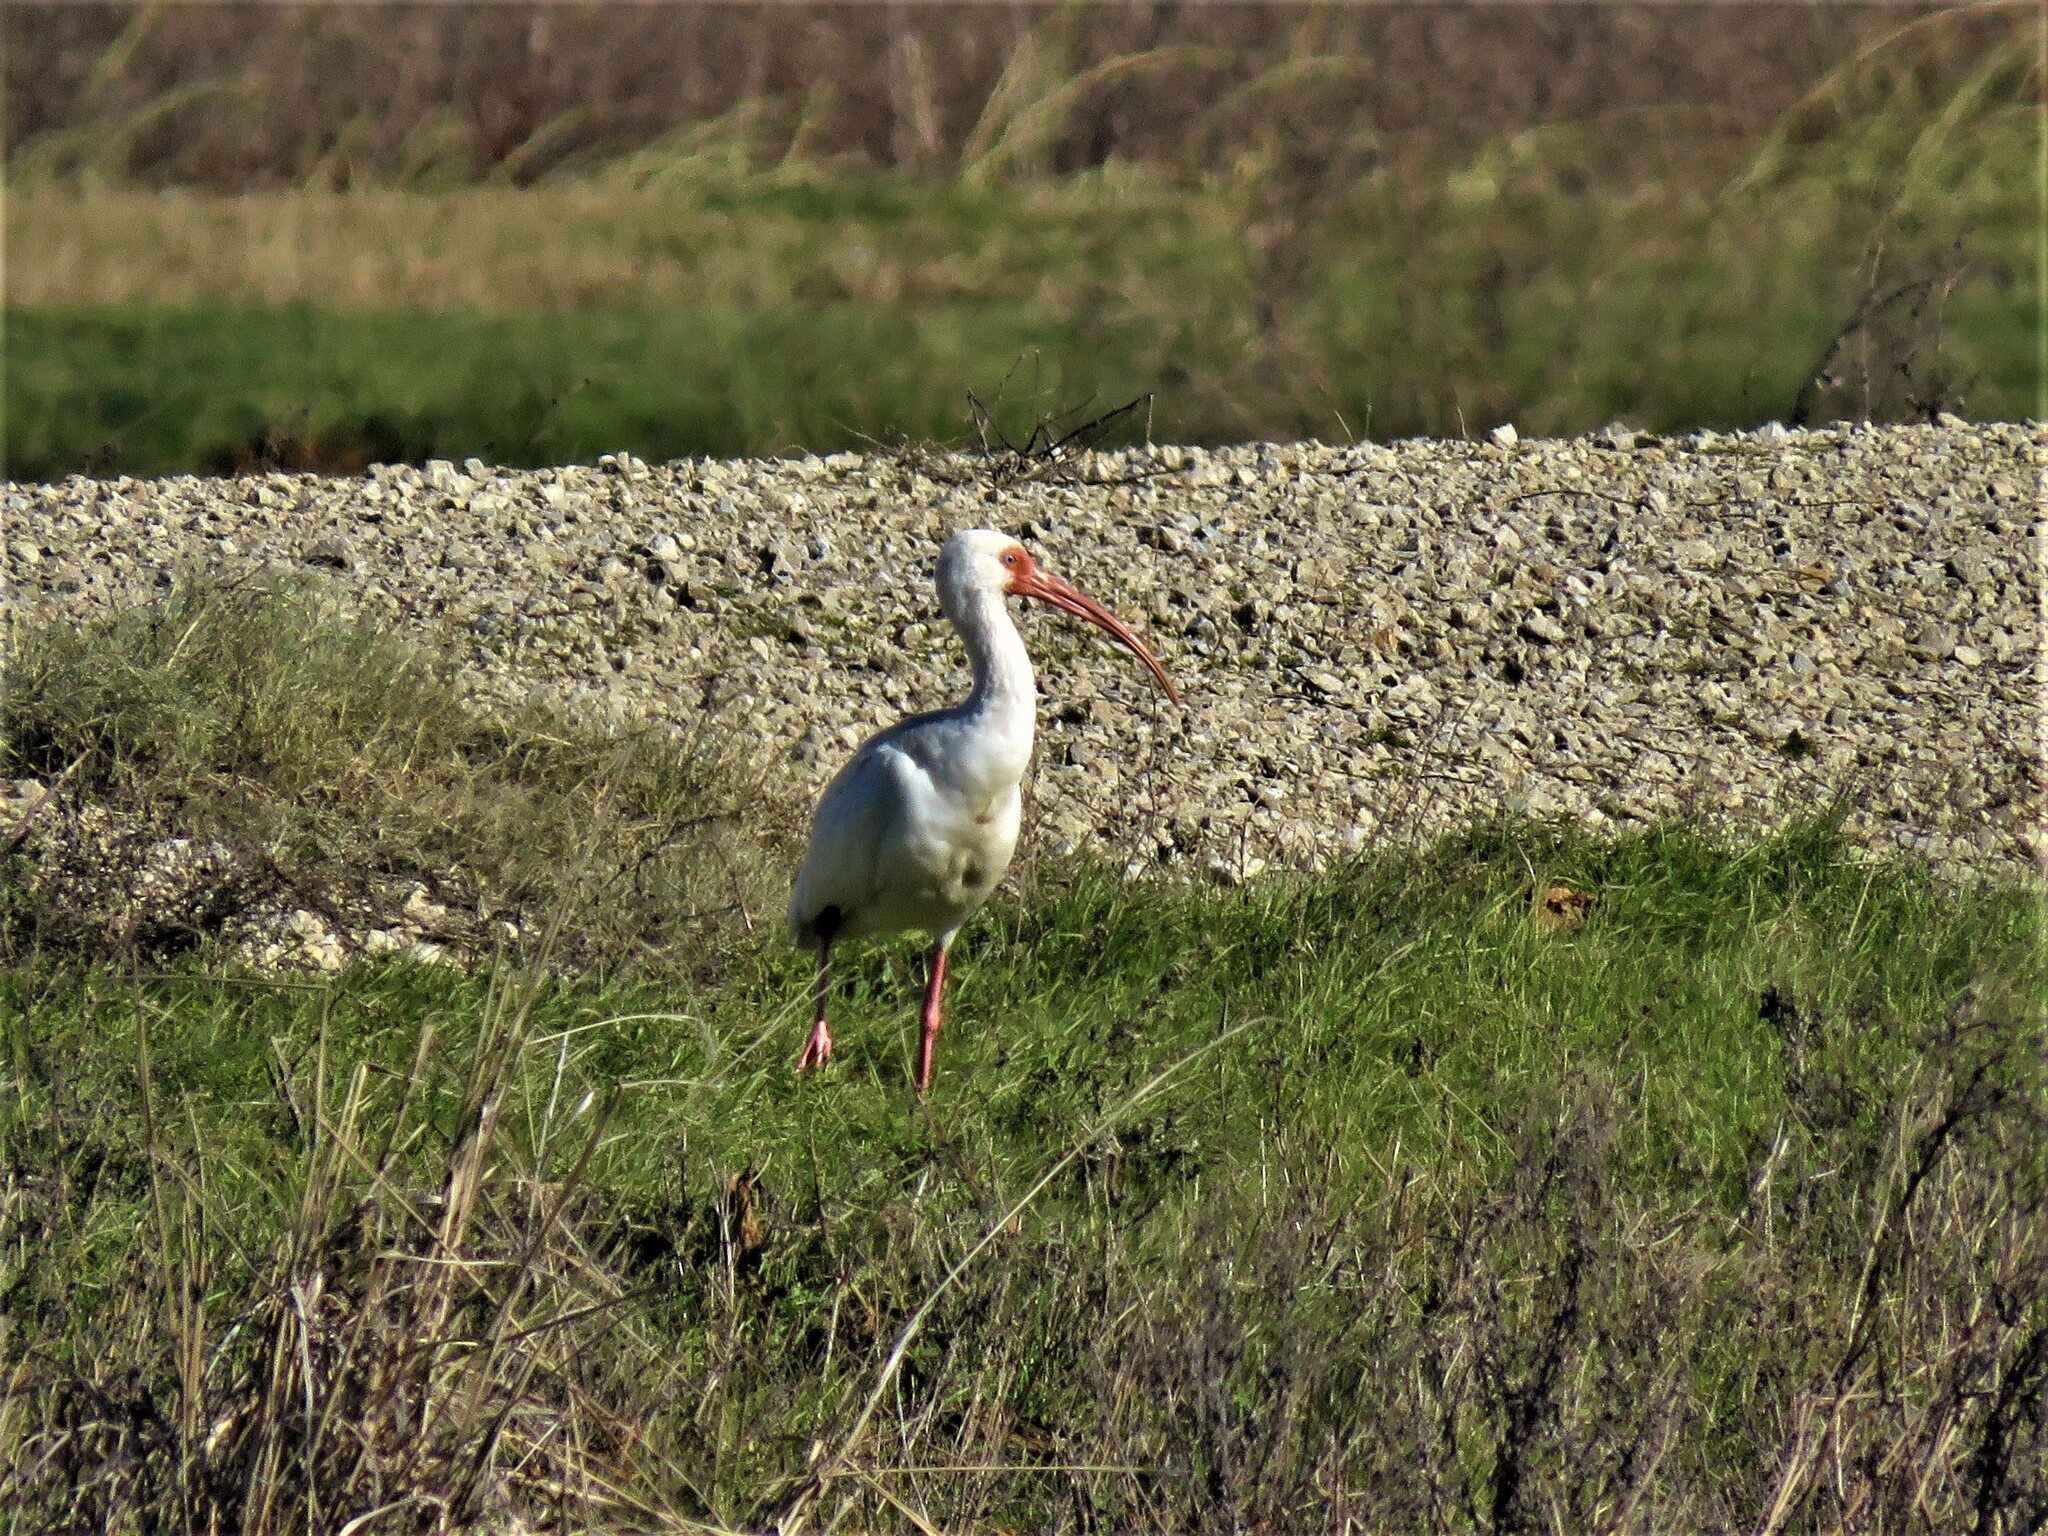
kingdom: Animalia
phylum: Chordata
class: Aves
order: Pelecaniformes
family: Threskiornithidae
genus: Eudocimus
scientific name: Eudocimus albus
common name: White ibis
